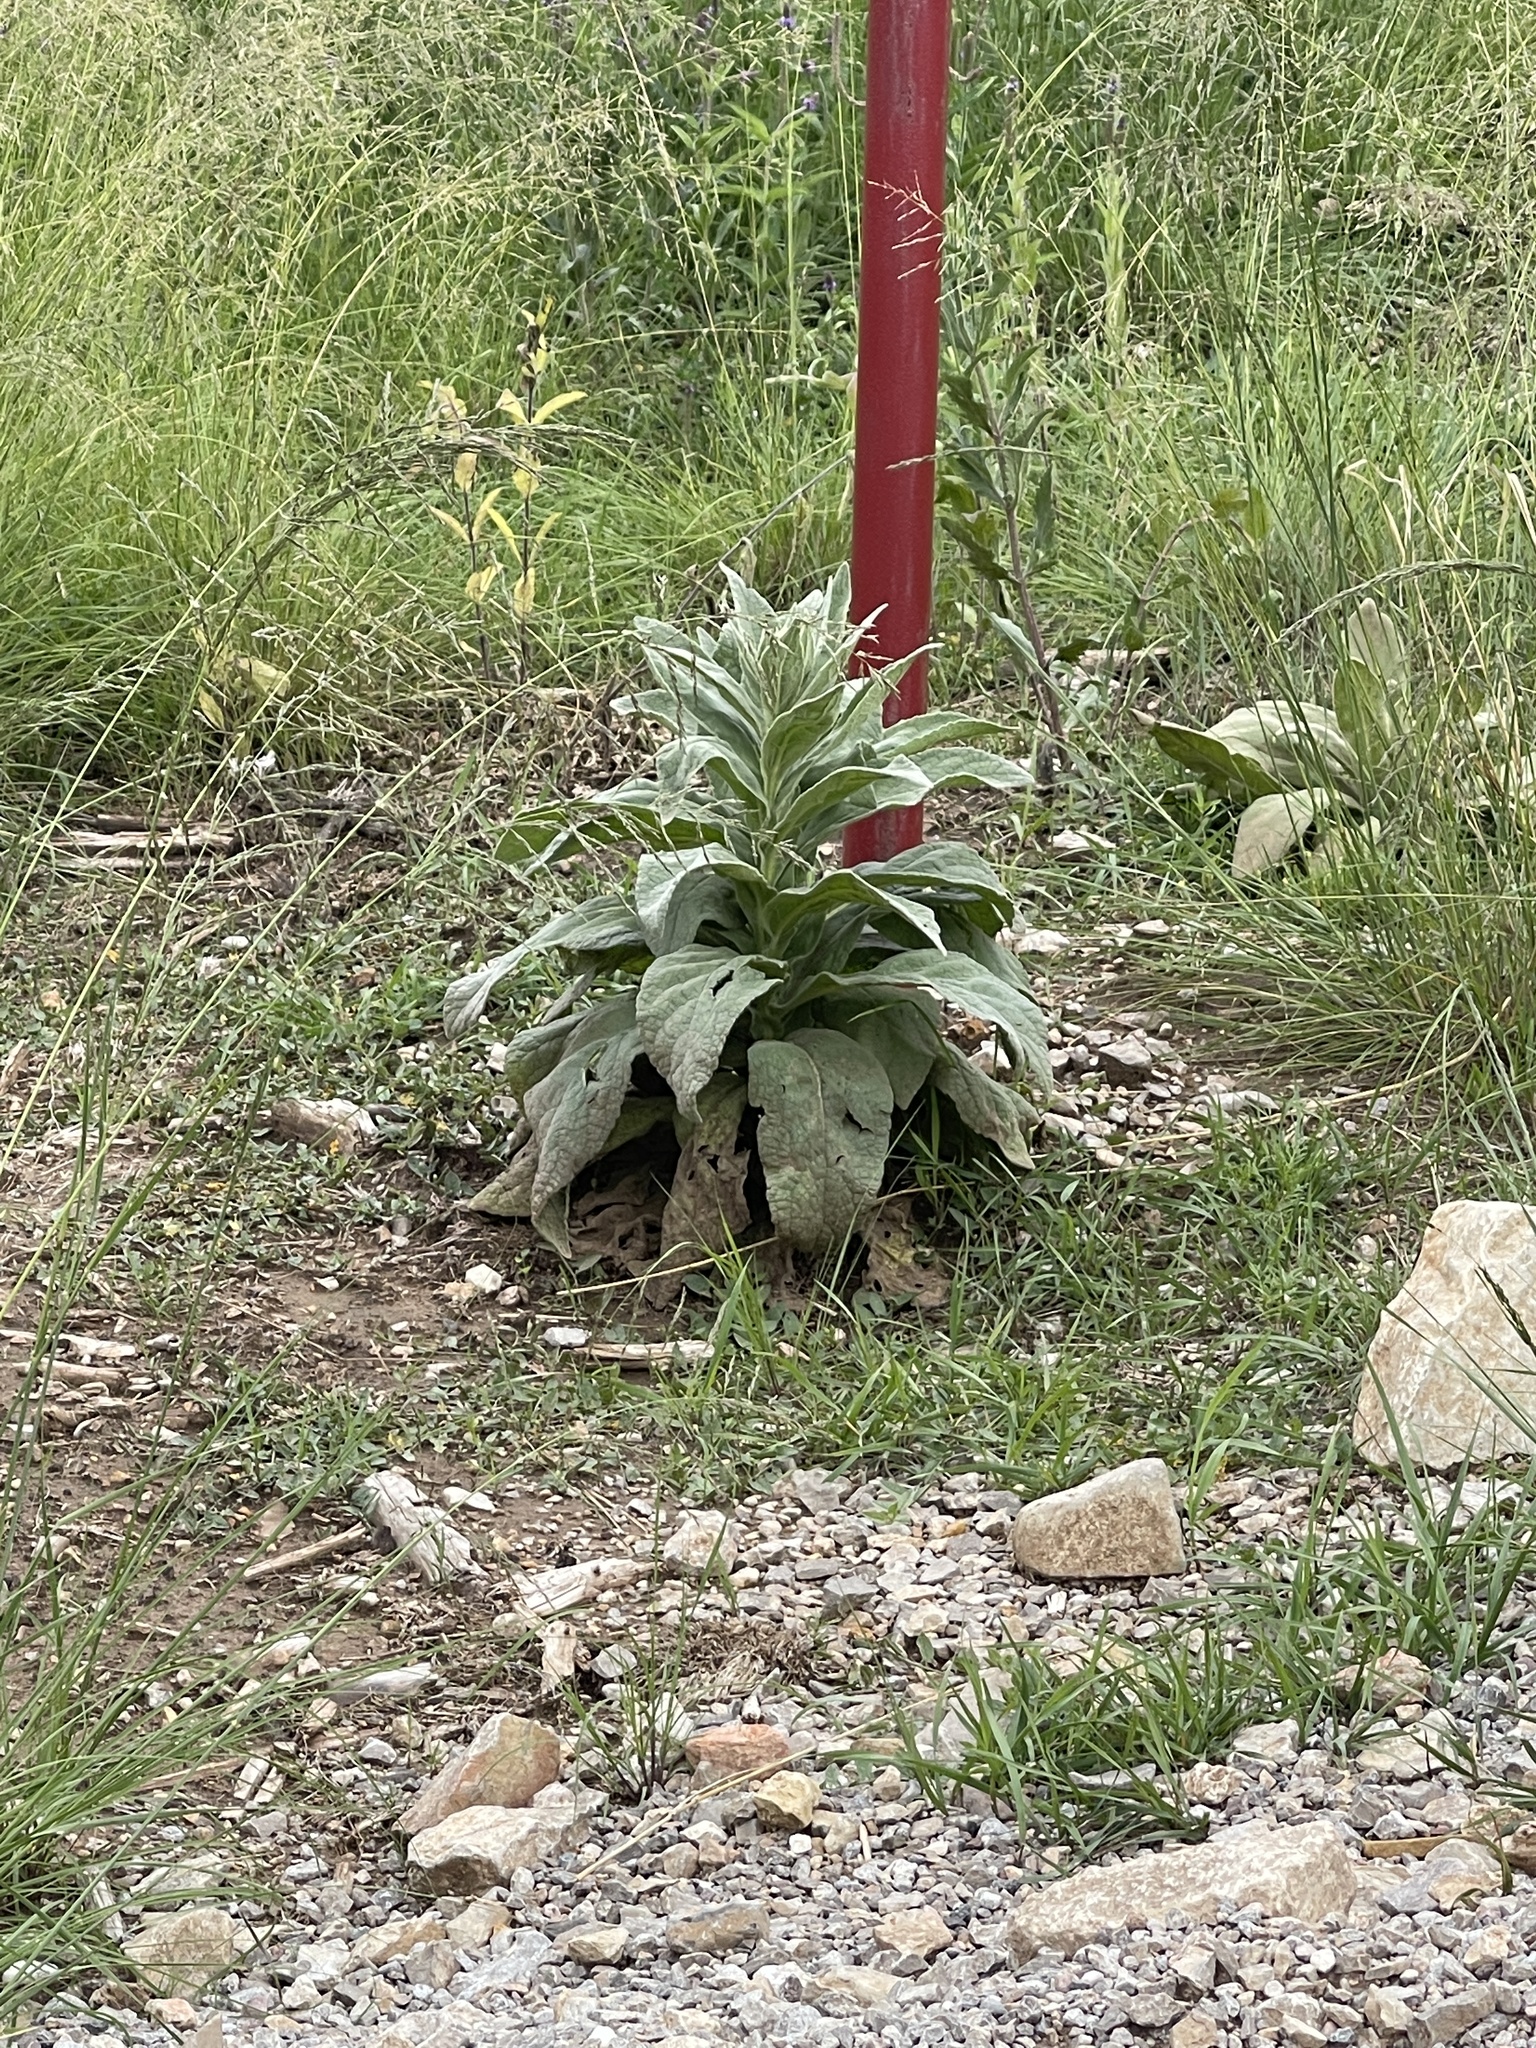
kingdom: Plantae
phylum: Tracheophyta
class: Magnoliopsida
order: Lamiales
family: Scrophulariaceae
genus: Verbascum
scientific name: Verbascum thapsus
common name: Common mullein
